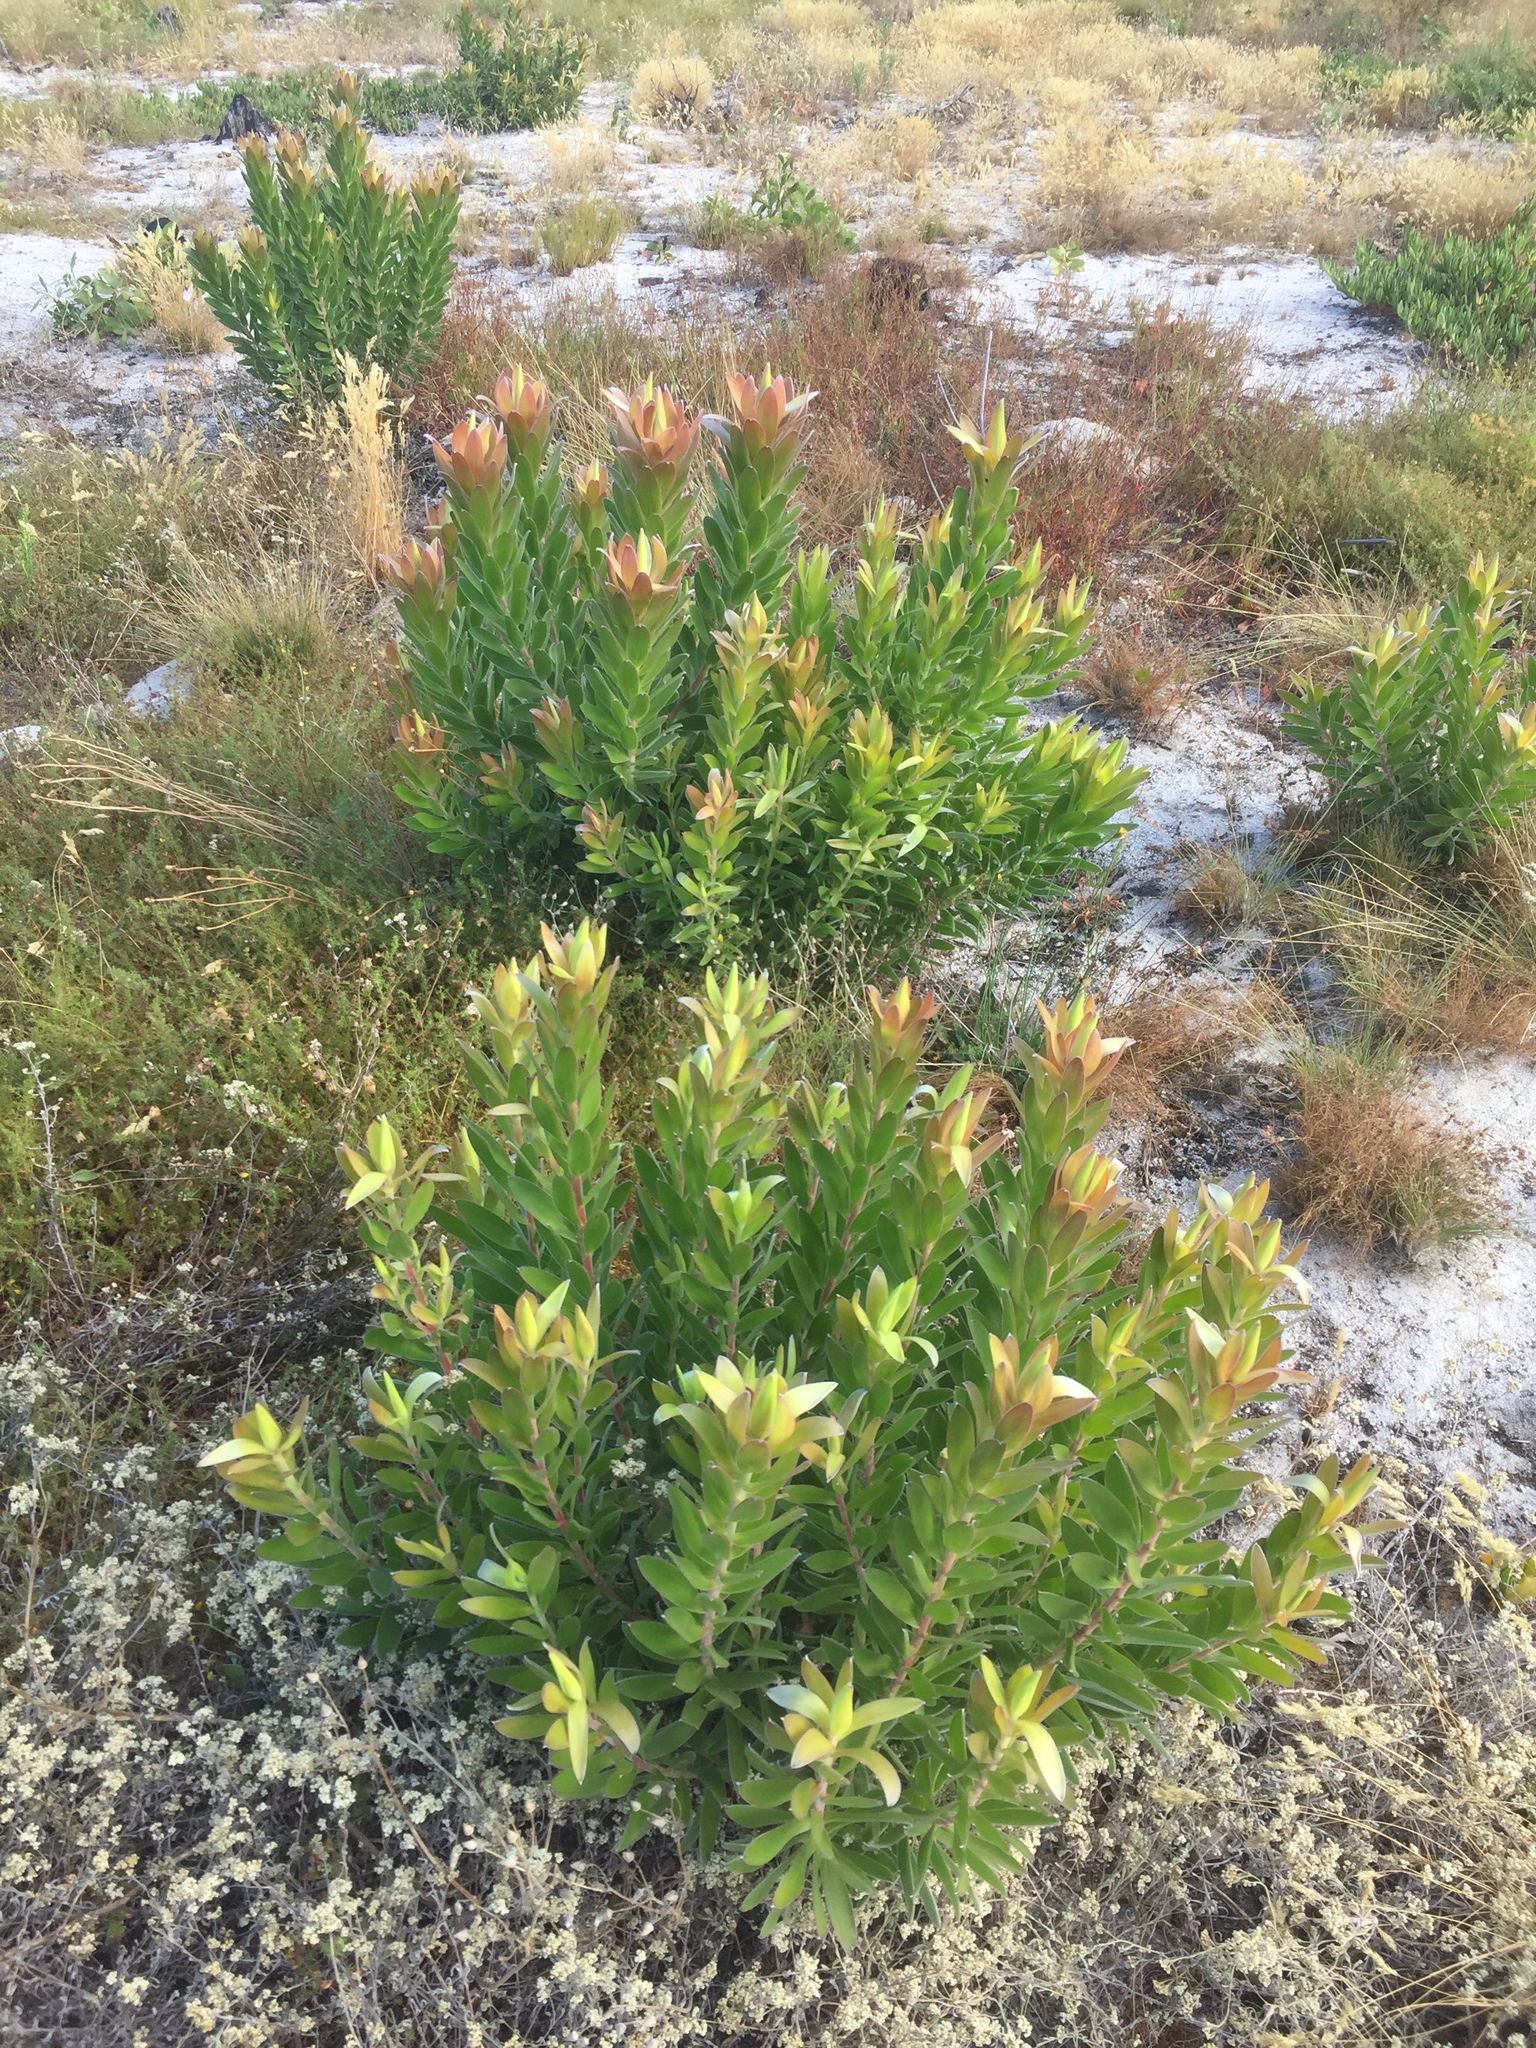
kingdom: Plantae
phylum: Tracheophyta
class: Magnoliopsida
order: Proteales
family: Proteaceae
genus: Leucadendron
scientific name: Leucadendron laureolum
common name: Golden sunshinebush
